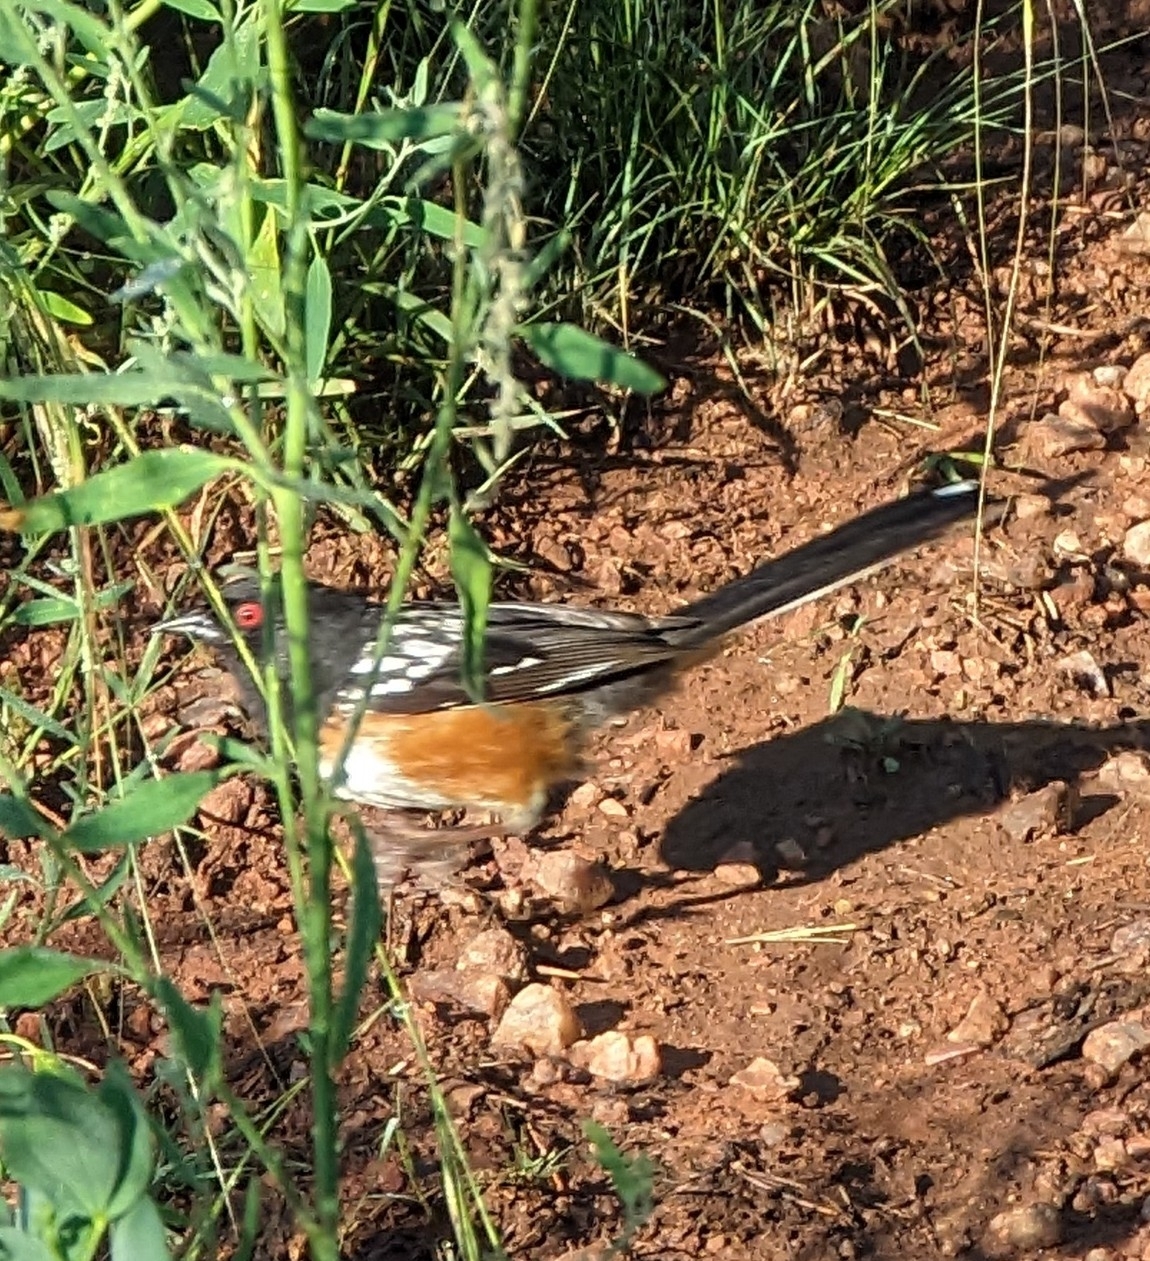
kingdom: Animalia
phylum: Chordata
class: Aves
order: Passeriformes
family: Passerellidae
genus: Pipilo
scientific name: Pipilo maculatus
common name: Spotted towhee
